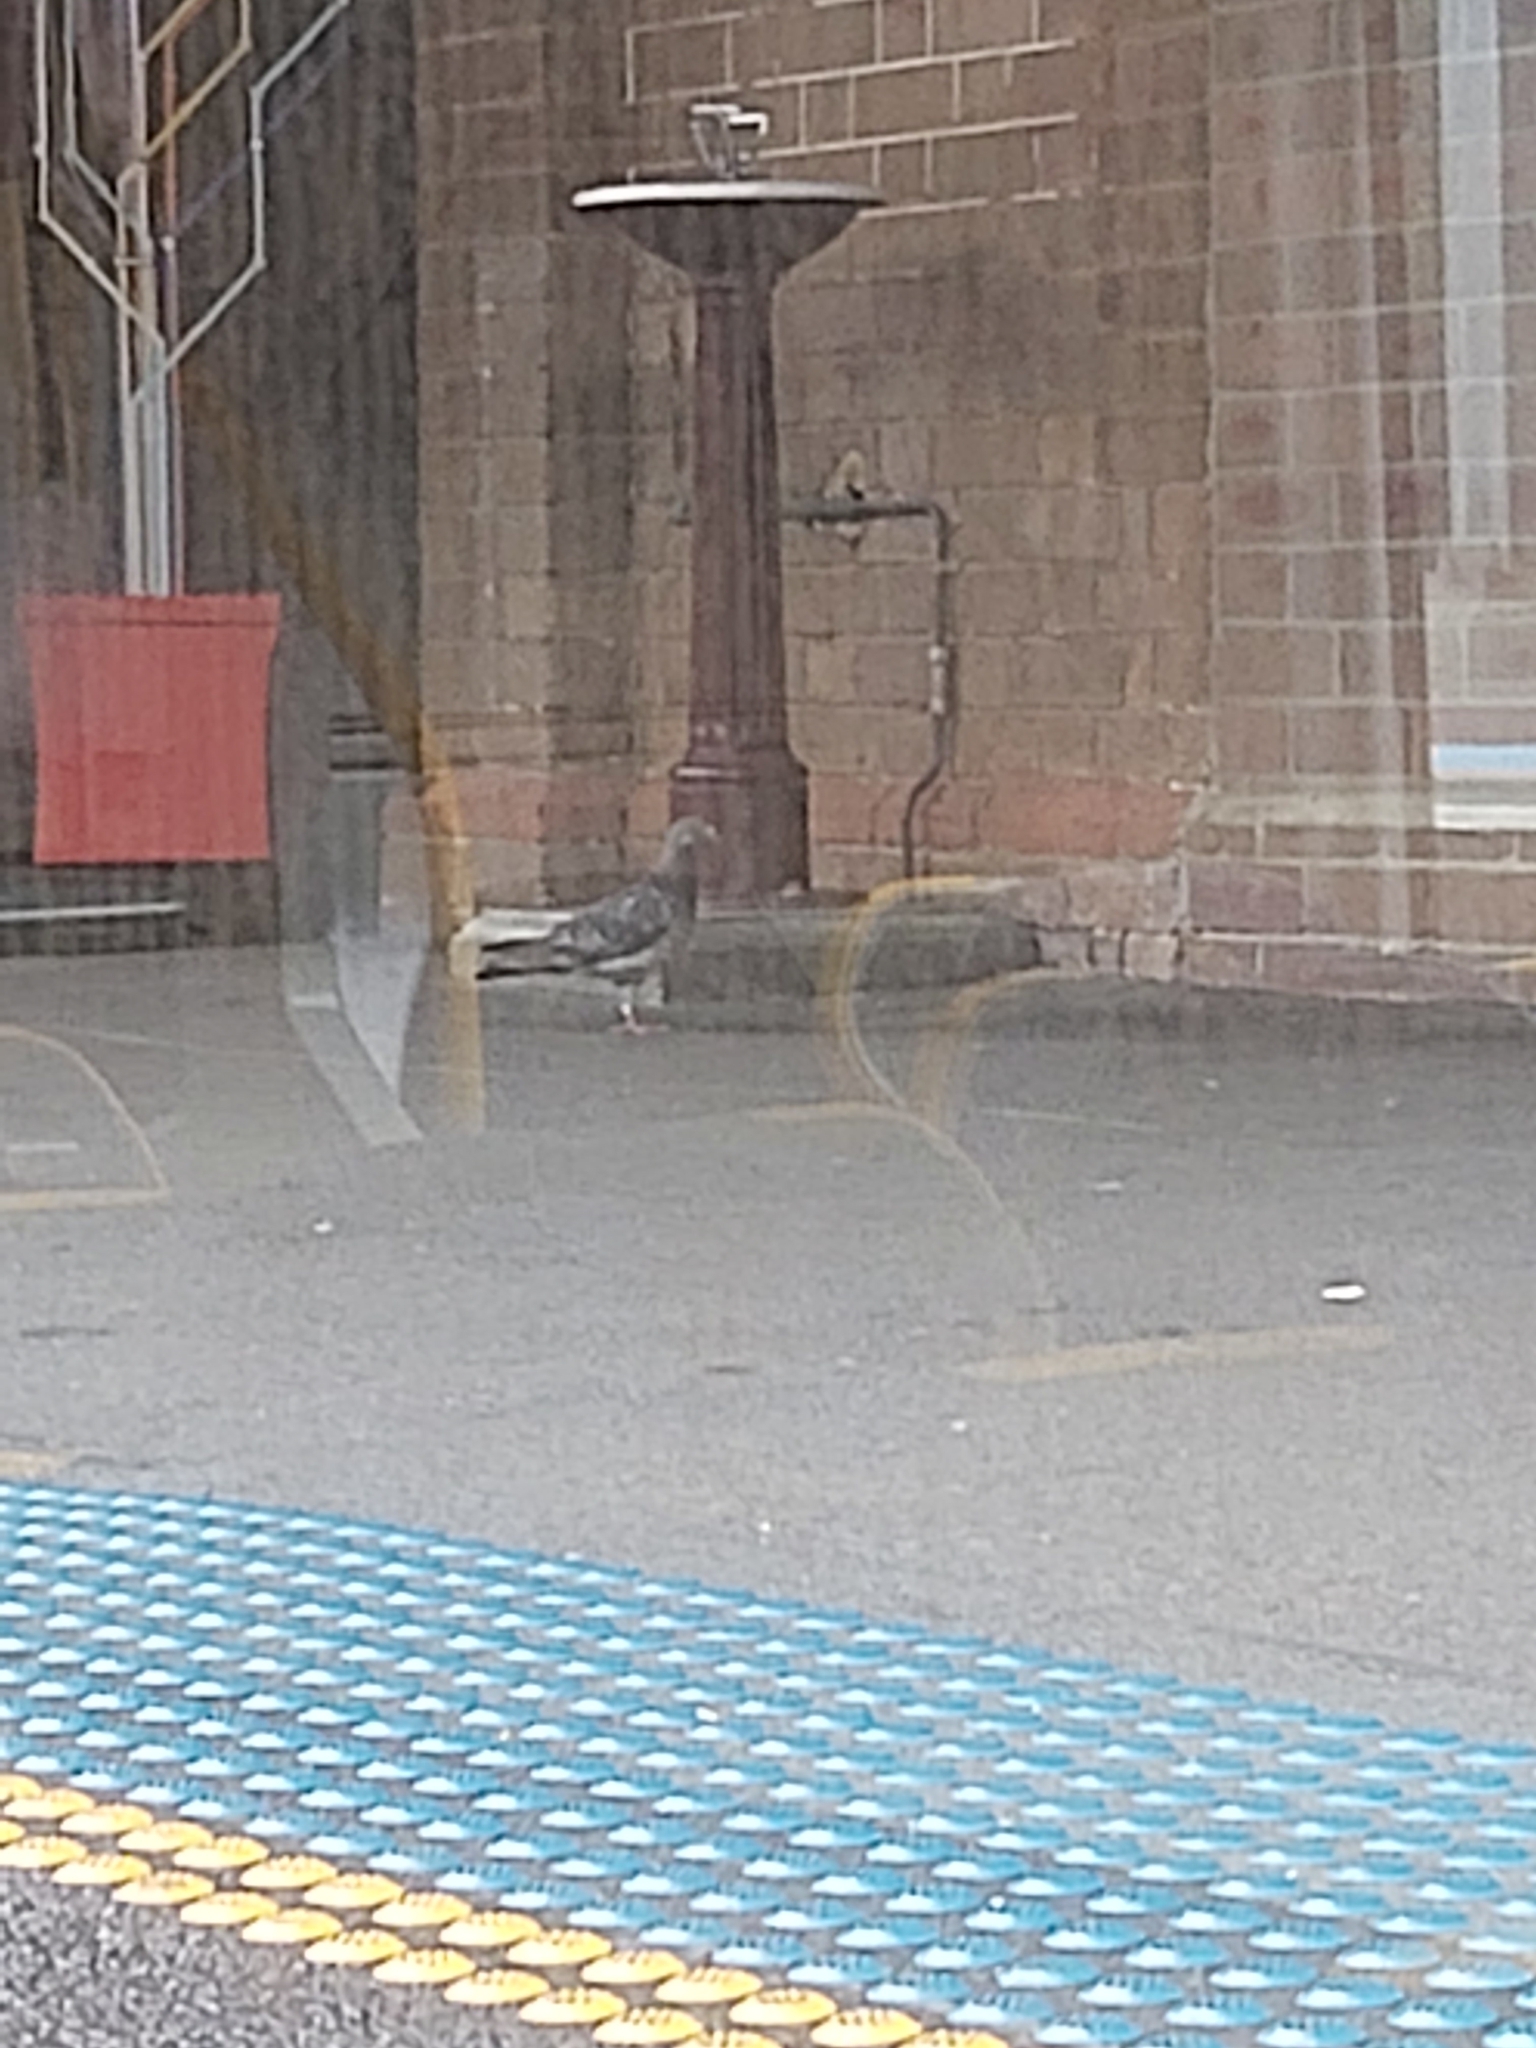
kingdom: Animalia
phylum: Chordata
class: Aves
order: Columbiformes
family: Columbidae
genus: Columba
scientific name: Columba livia
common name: Rock pigeon
